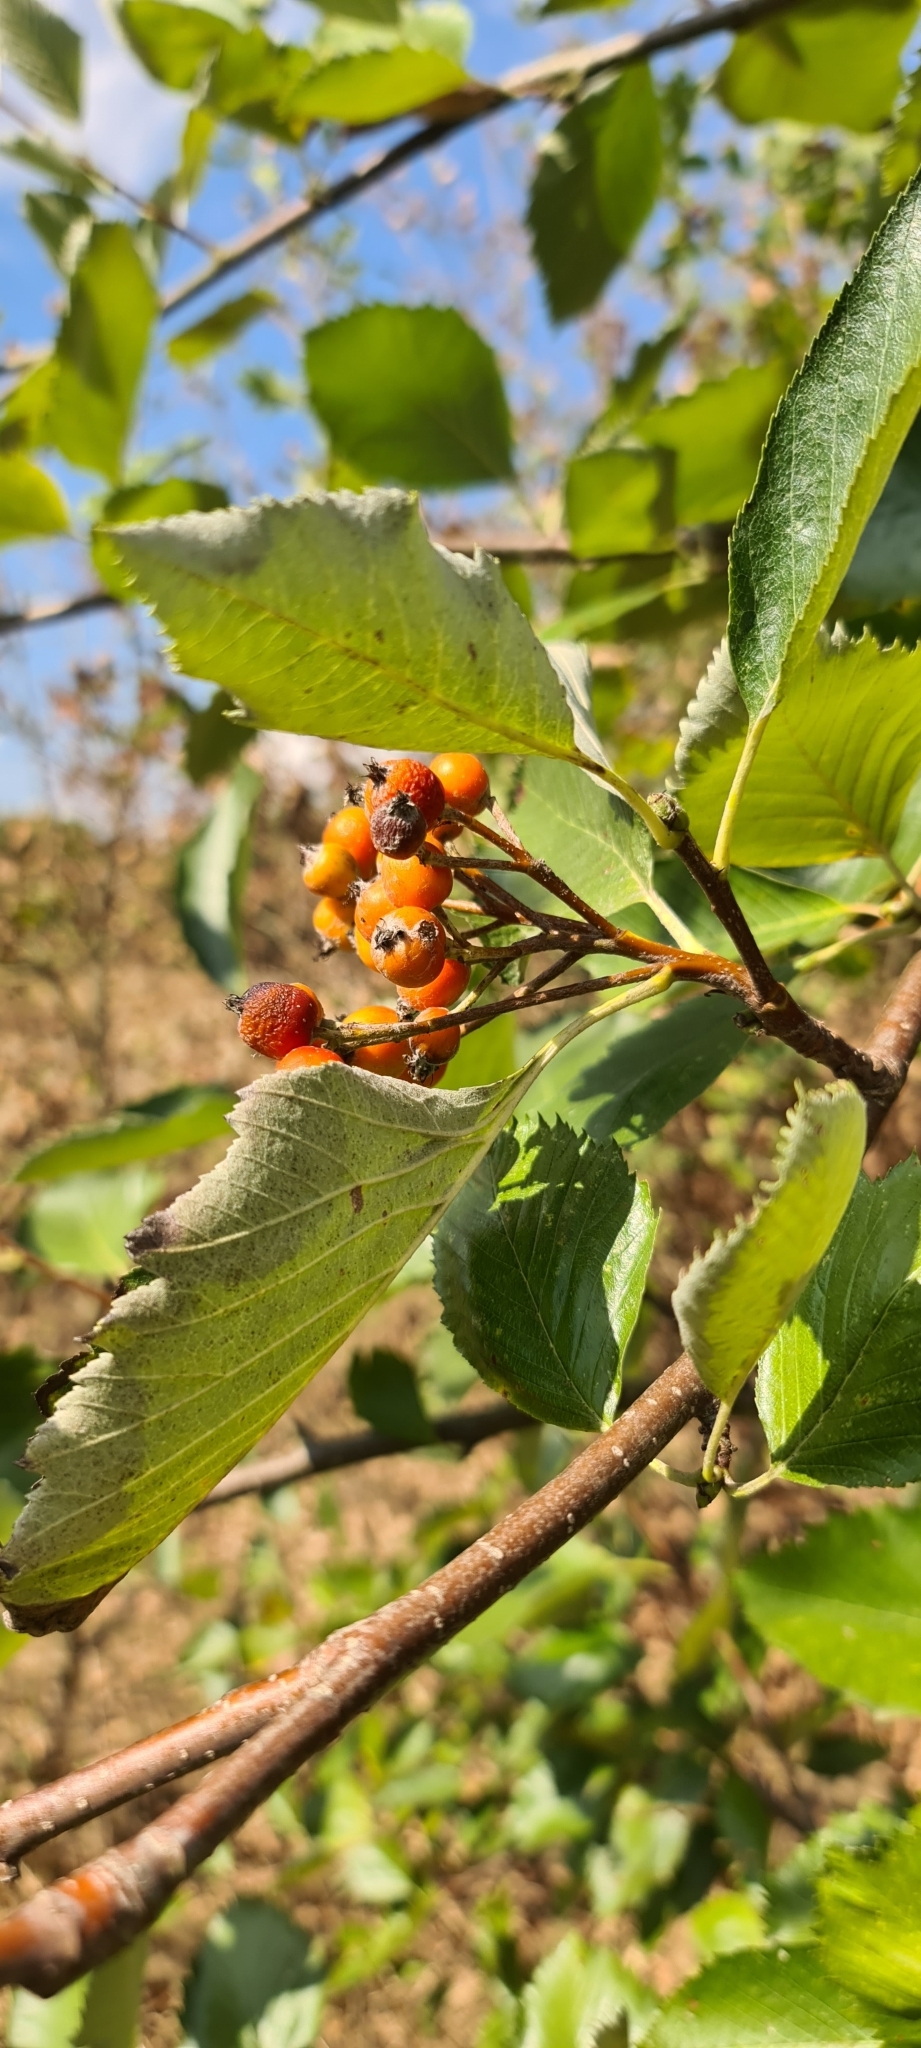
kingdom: Plantae
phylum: Tracheophyta
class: Magnoliopsida
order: Rosales
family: Rosaceae
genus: Aria
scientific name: Aria edulis
